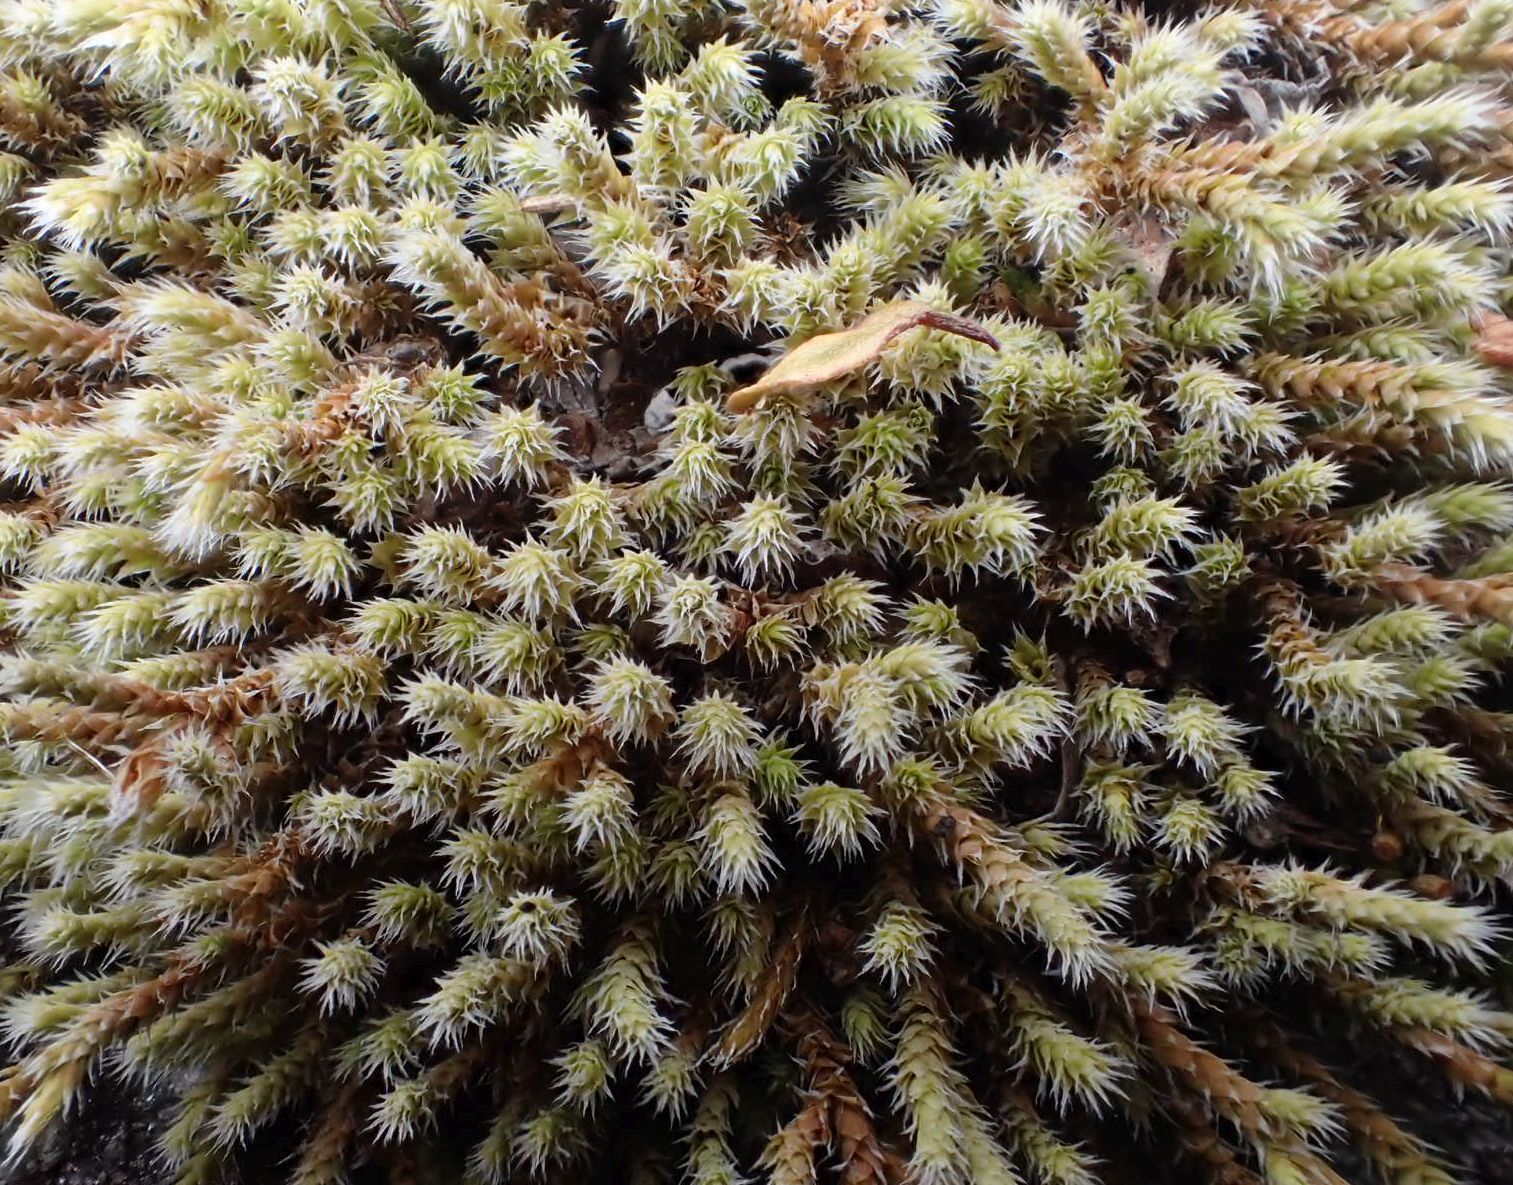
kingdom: Plantae
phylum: Bryophyta
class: Bryopsida
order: Hedwigiales
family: Hedwigiaceae
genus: Hedwigia
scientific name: Hedwigia ciliata
